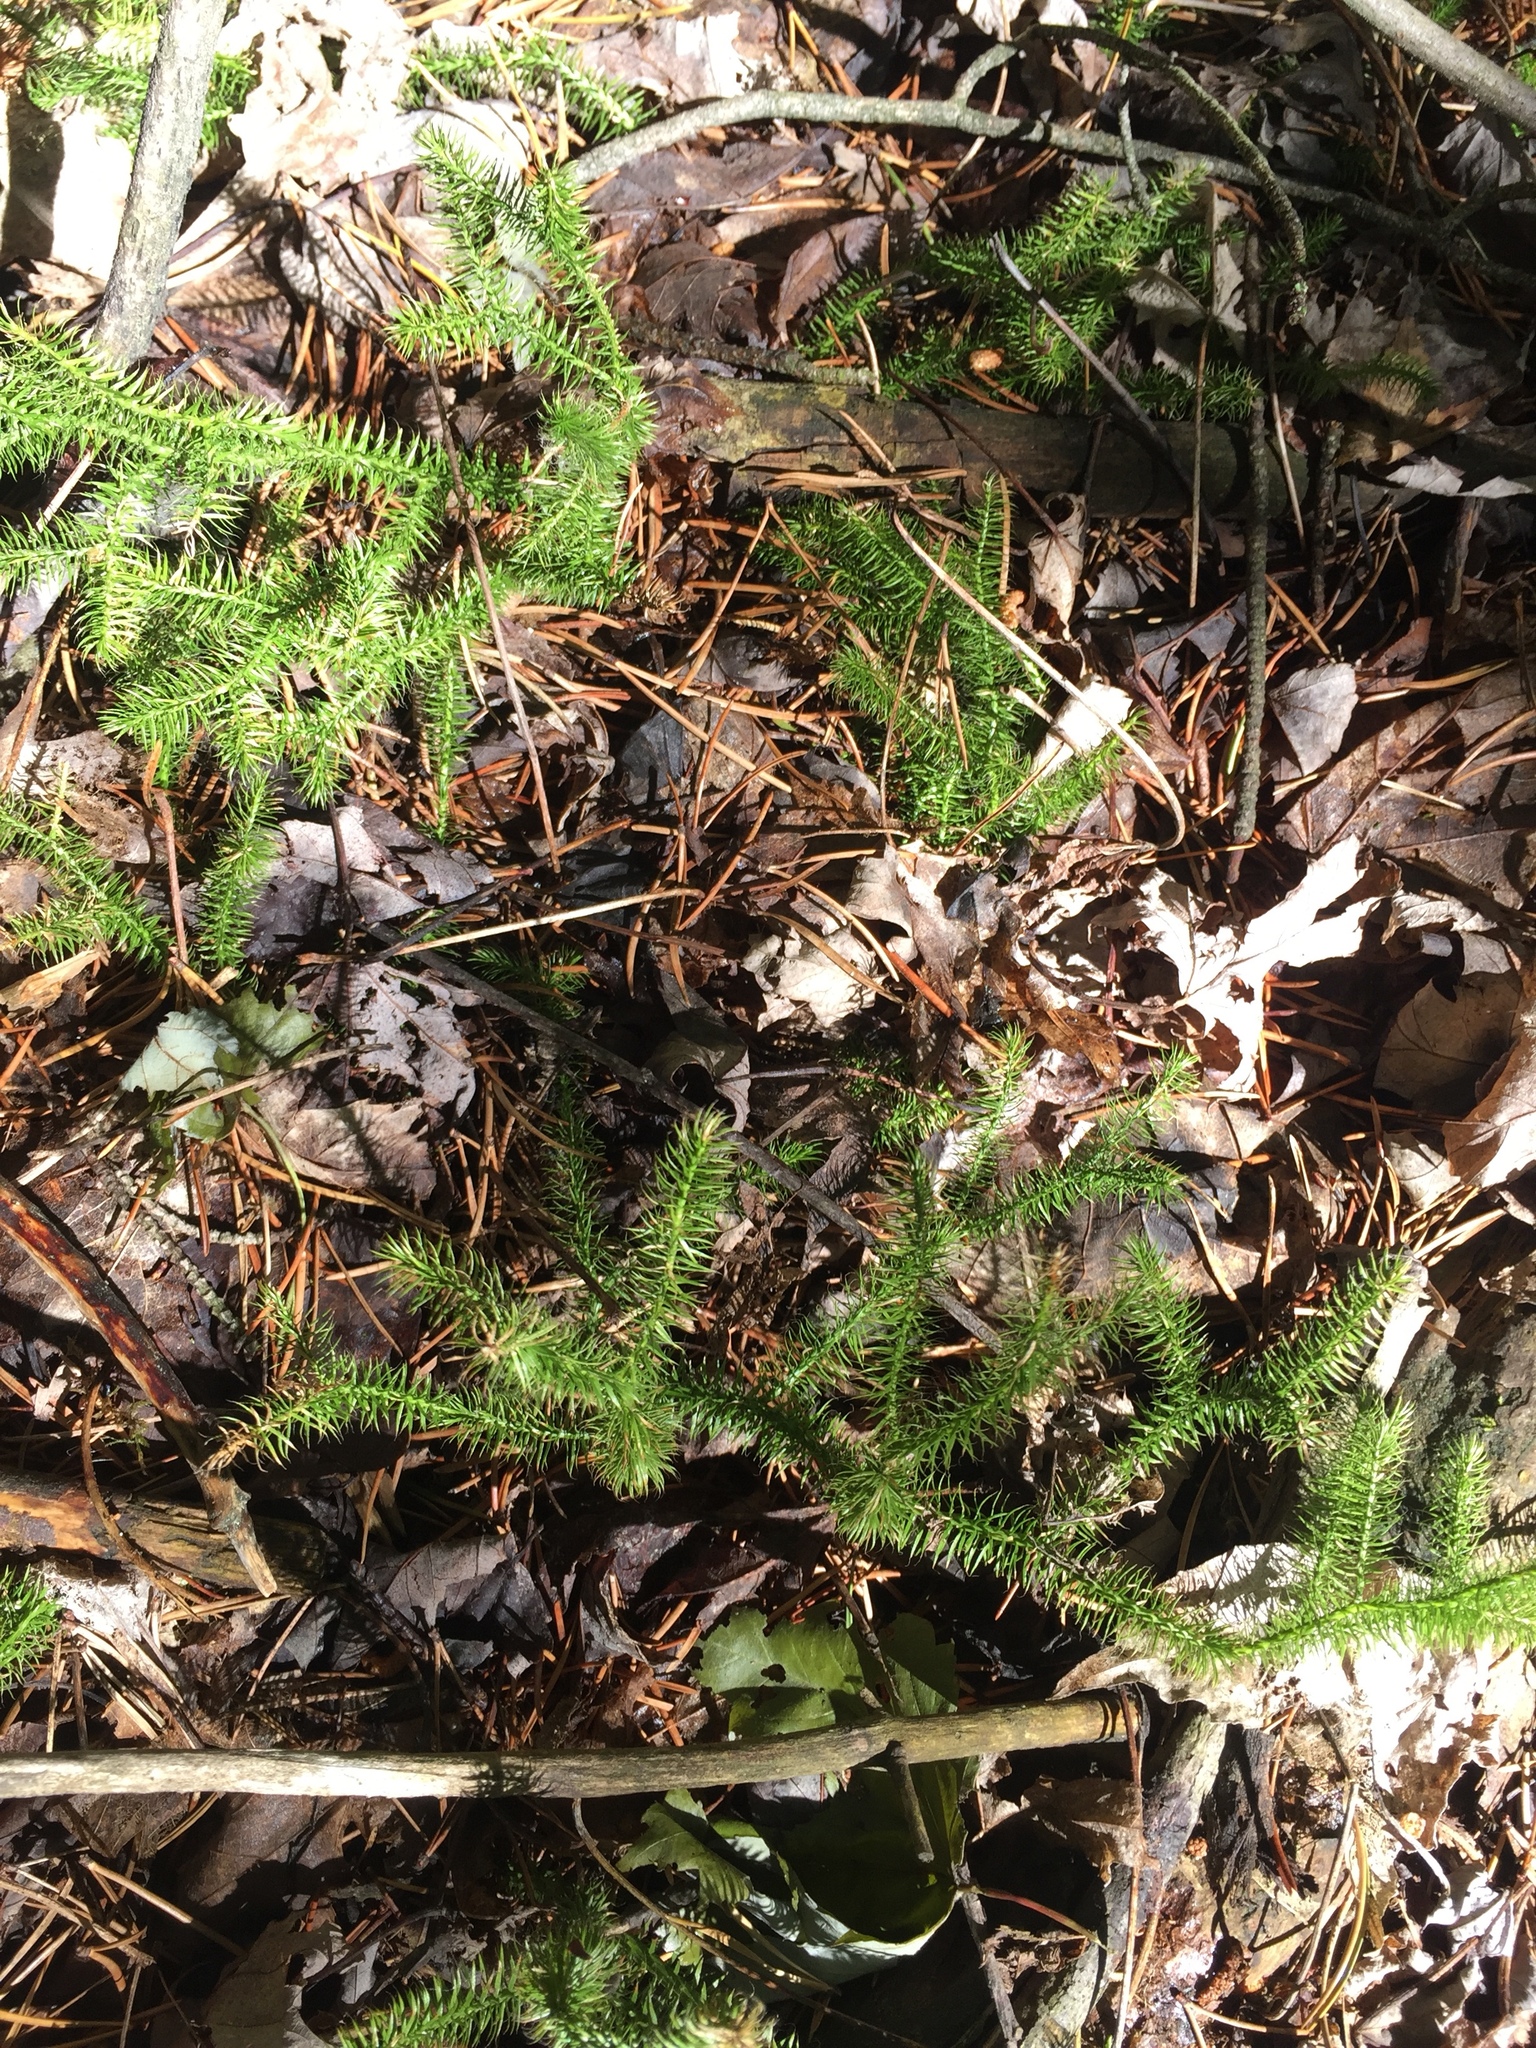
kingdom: Plantae
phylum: Tracheophyta
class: Lycopodiopsida
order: Lycopodiales
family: Lycopodiaceae
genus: Lycopodium
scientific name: Lycopodium clavatum
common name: Stag's-horn clubmoss
